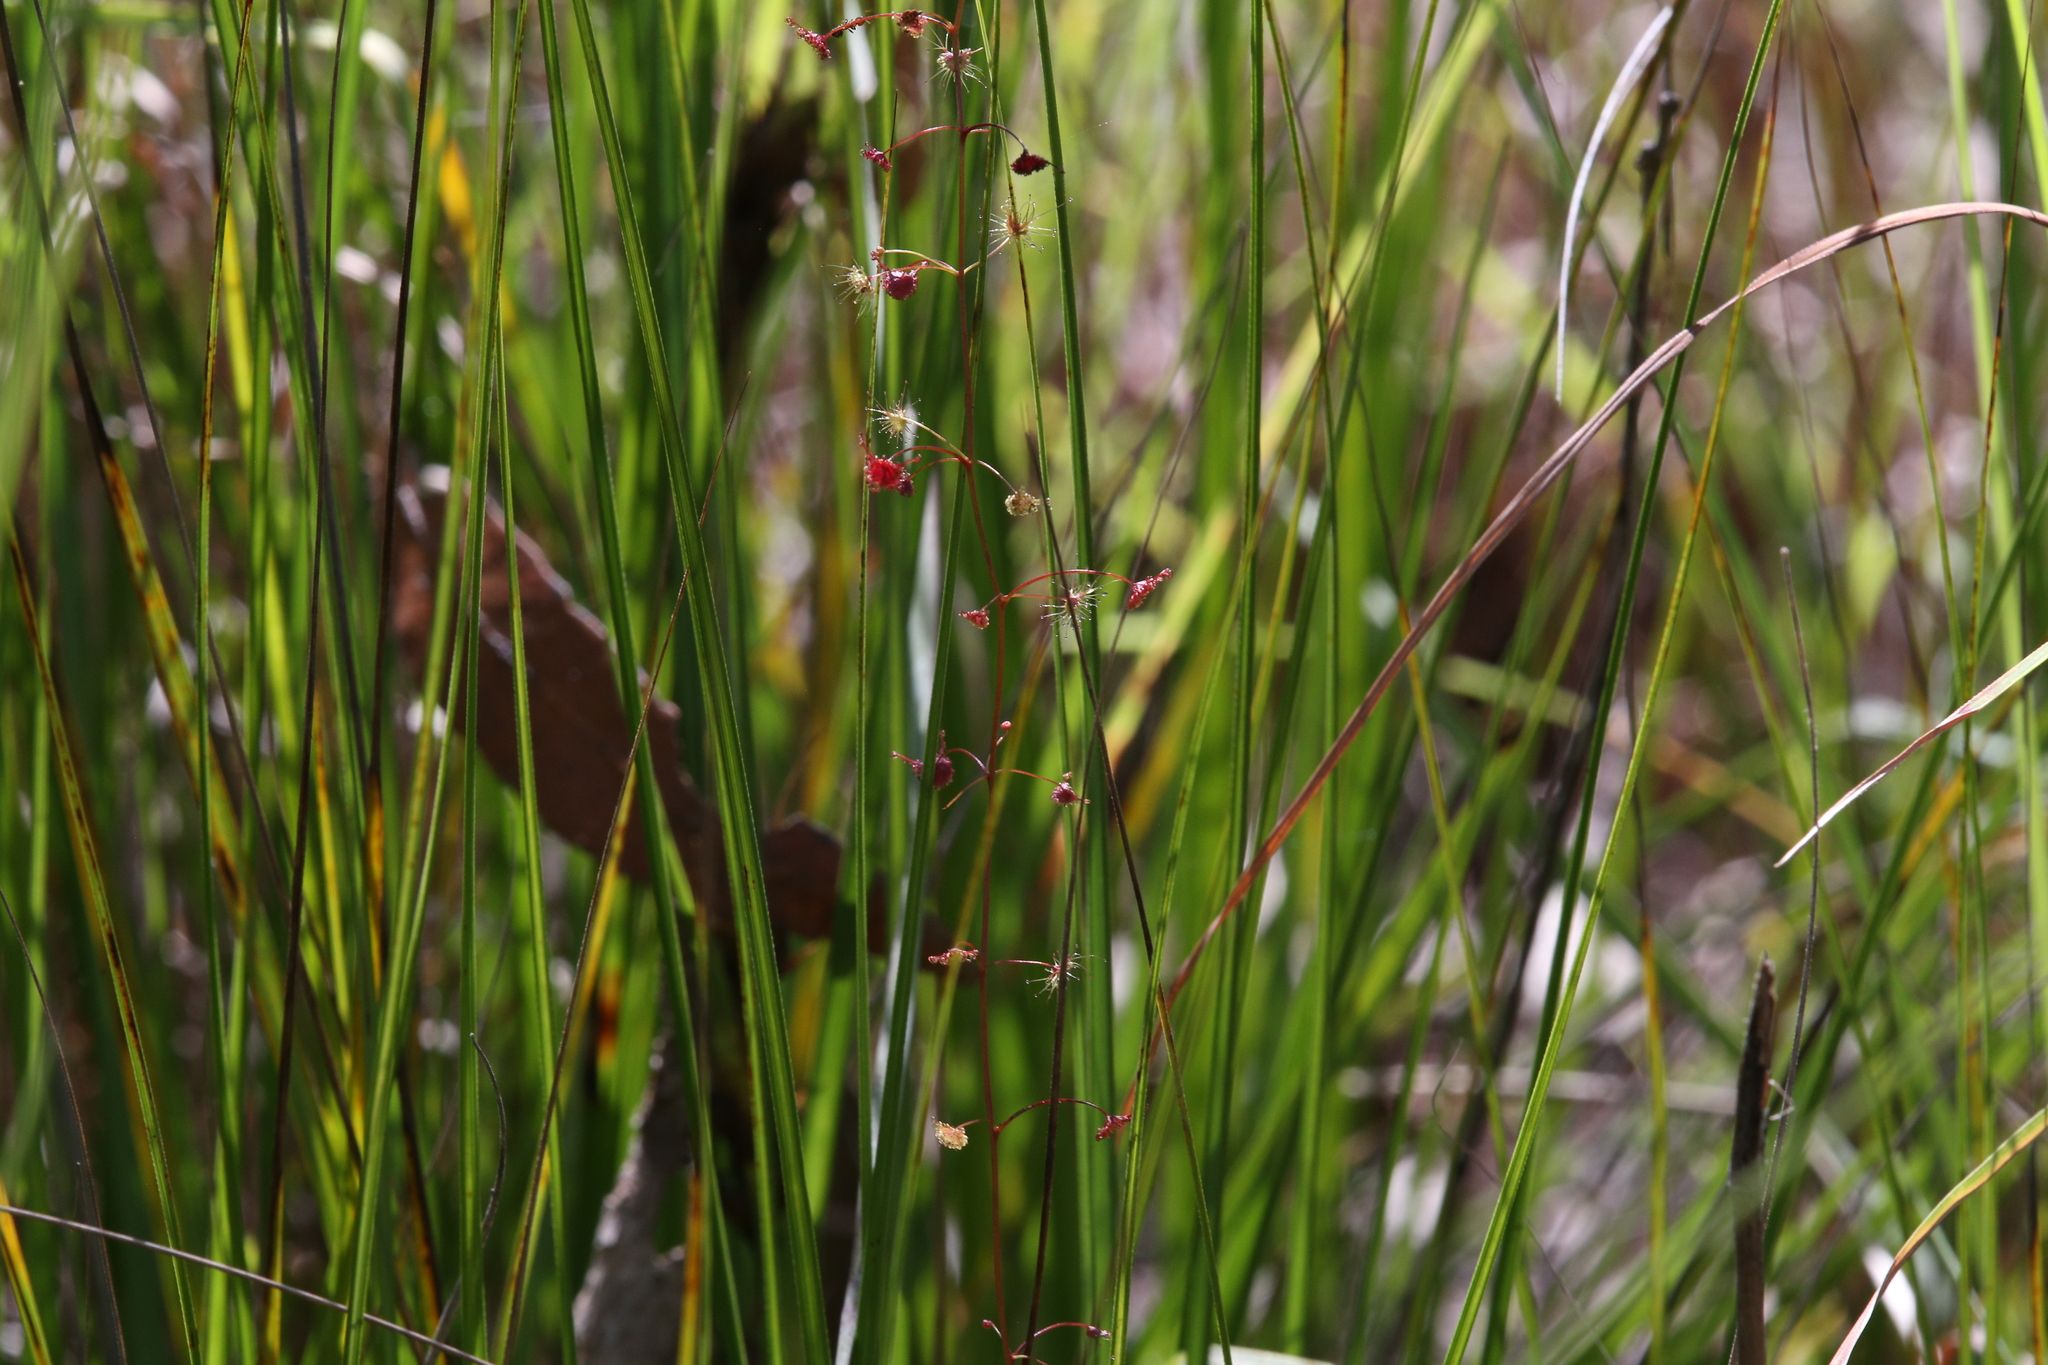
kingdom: Plantae
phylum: Tracheophyta
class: Magnoliopsida
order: Caryophyllales
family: Droseraceae
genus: Drosera
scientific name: Drosera peltata
